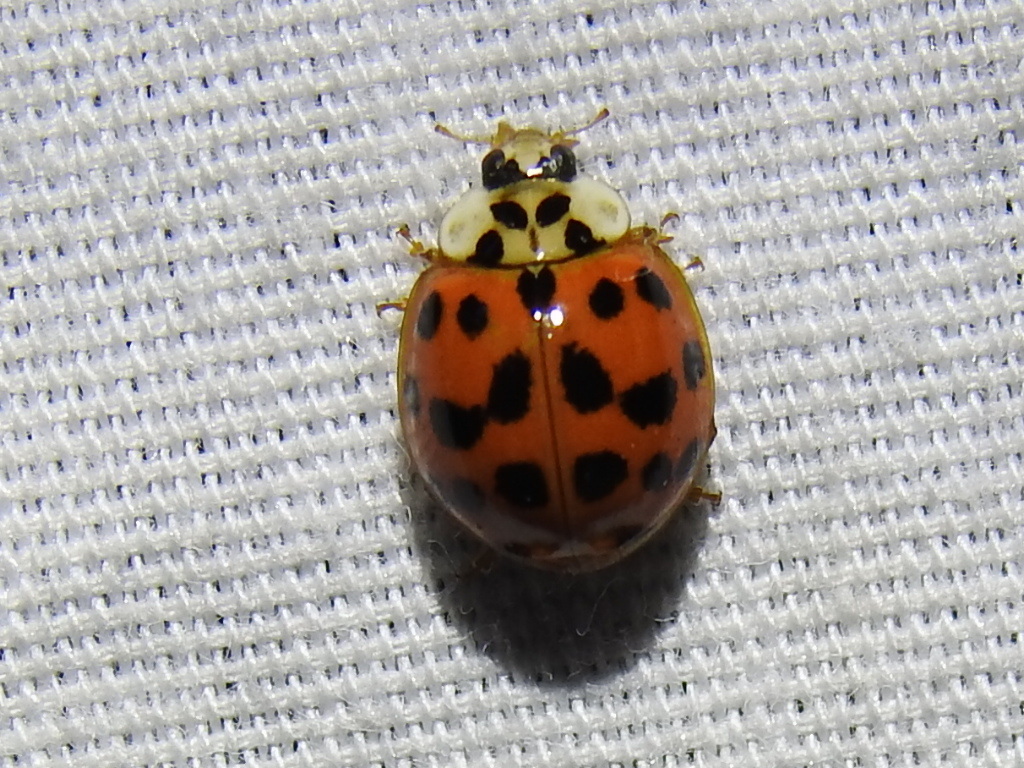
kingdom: Animalia
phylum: Arthropoda
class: Insecta
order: Coleoptera
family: Coccinellidae
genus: Harmonia
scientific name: Harmonia axyridis
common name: Harlequin ladybird
